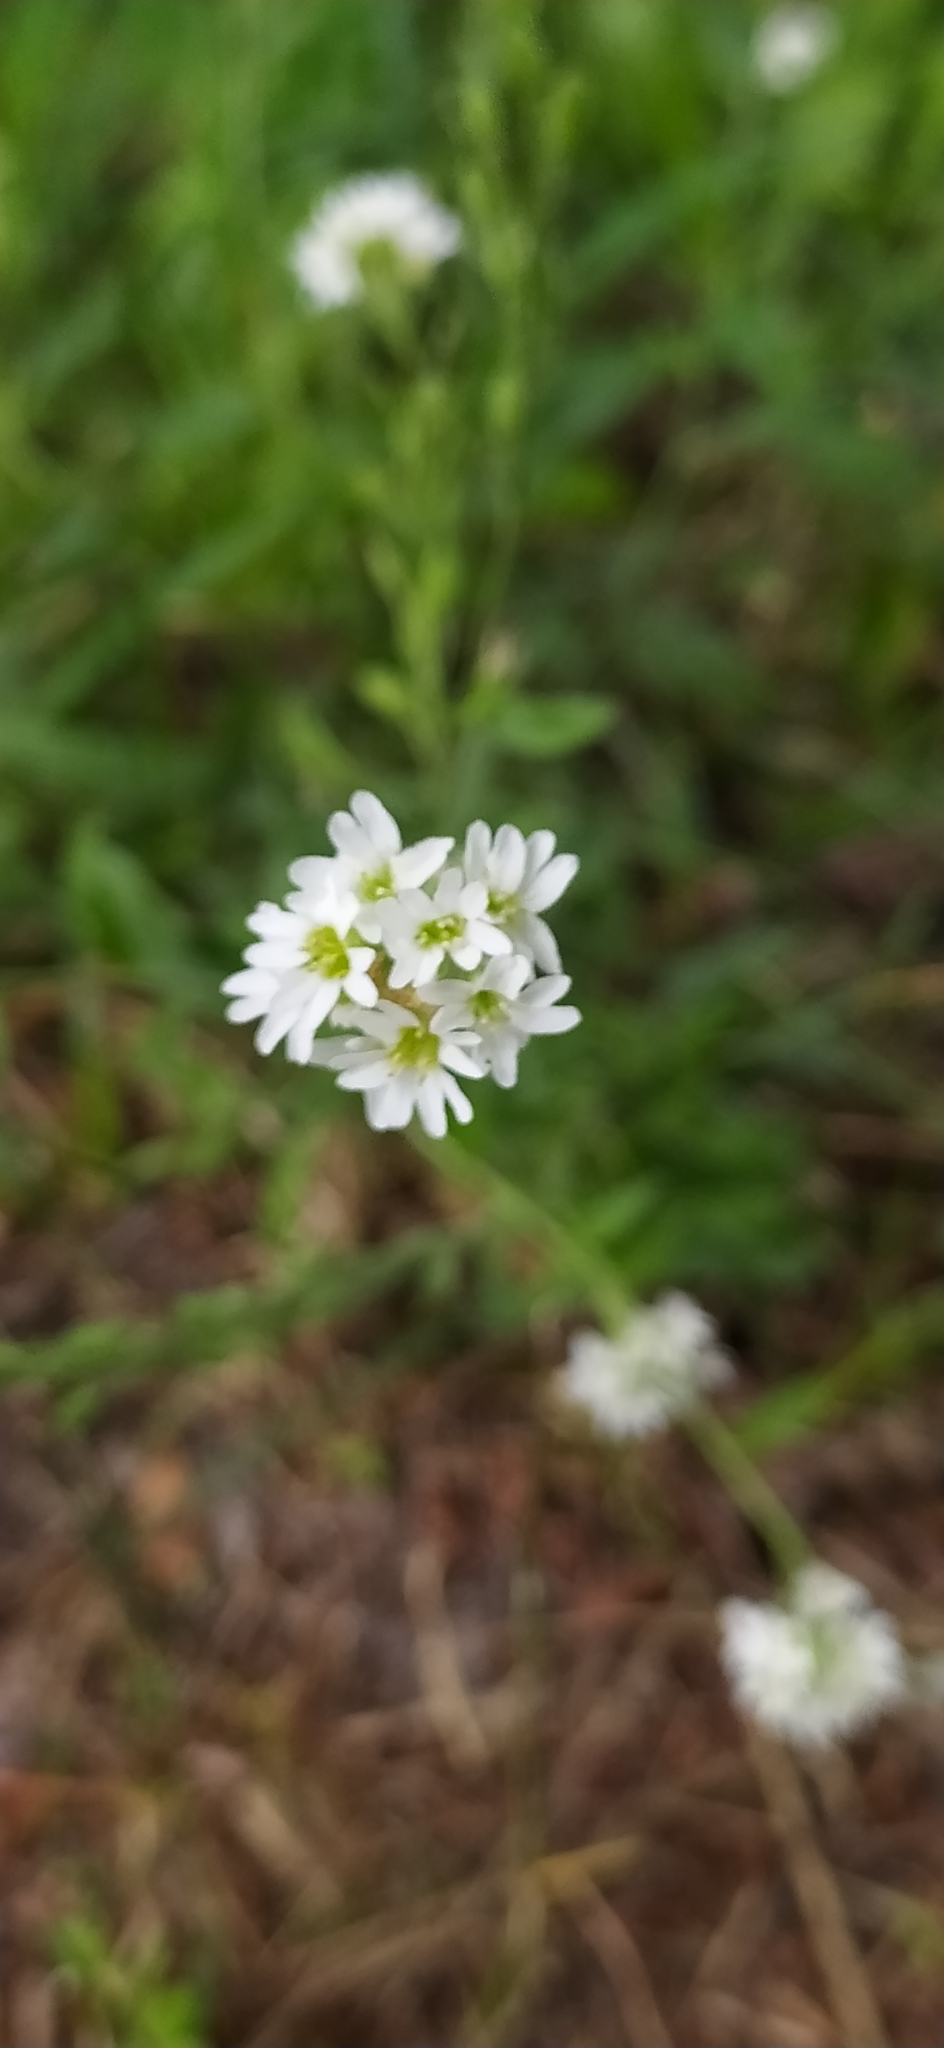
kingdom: Plantae
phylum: Tracheophyta
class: Magnoliopsida
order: Brassicales
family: Brassicaceae
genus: Berteroa
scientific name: Berteroa incana
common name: Hoary alison
